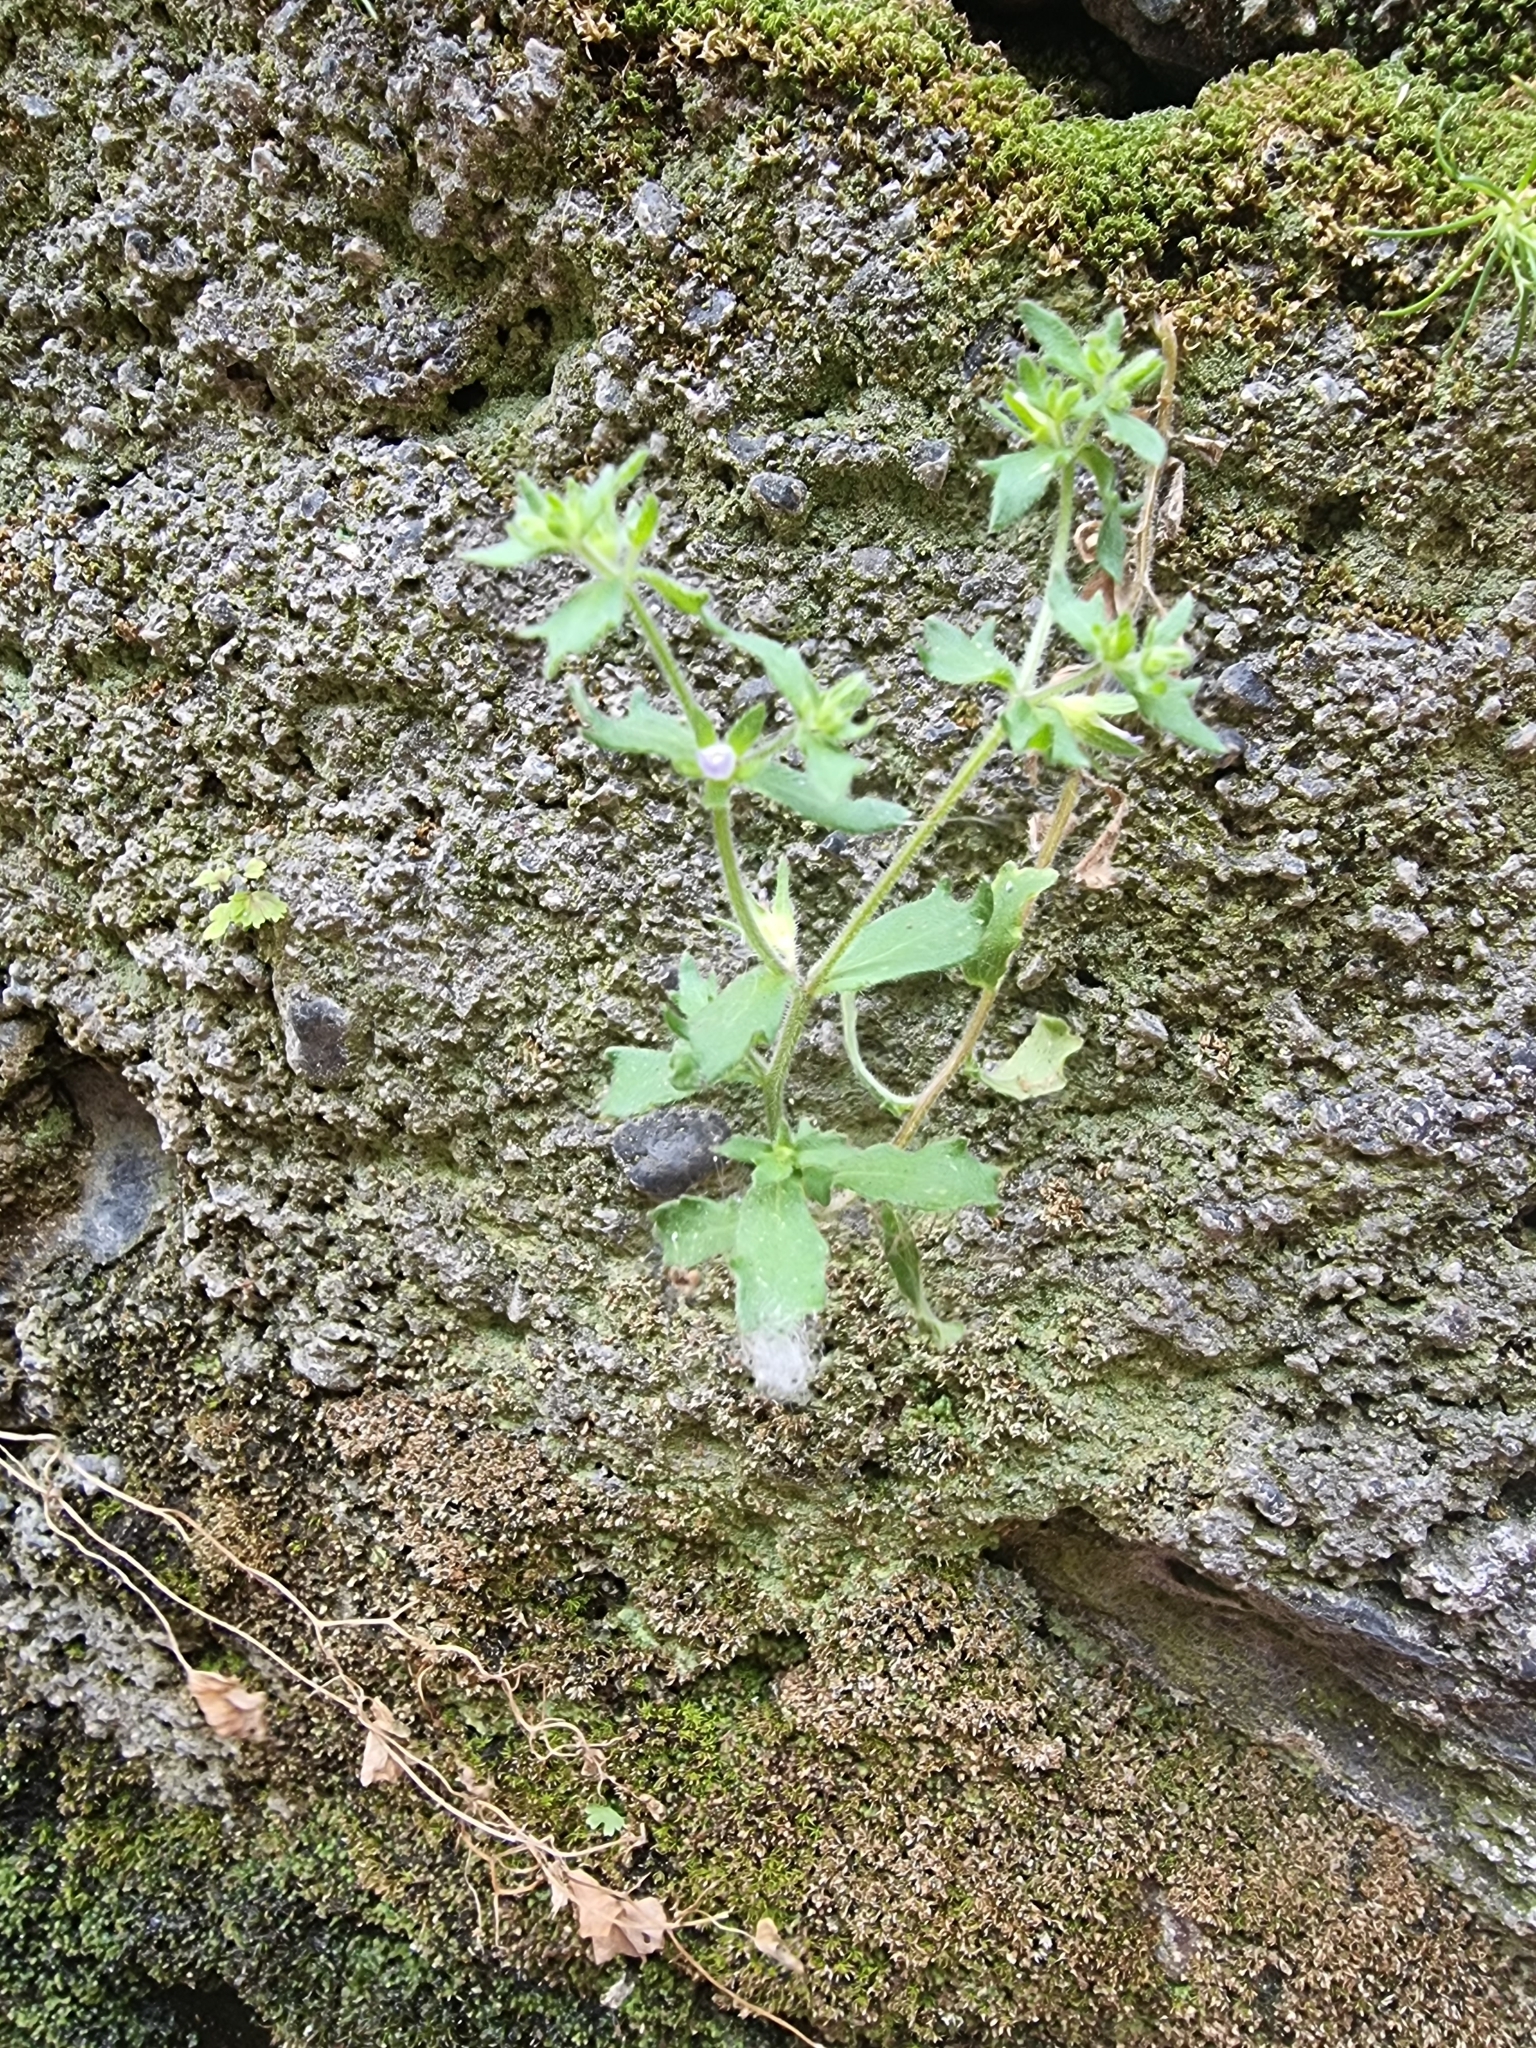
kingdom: Plantae
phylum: Tracheophyta
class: Magnoliopsida
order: Asterales
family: Campanulaceae
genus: Campanula
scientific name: Campanula erinus
